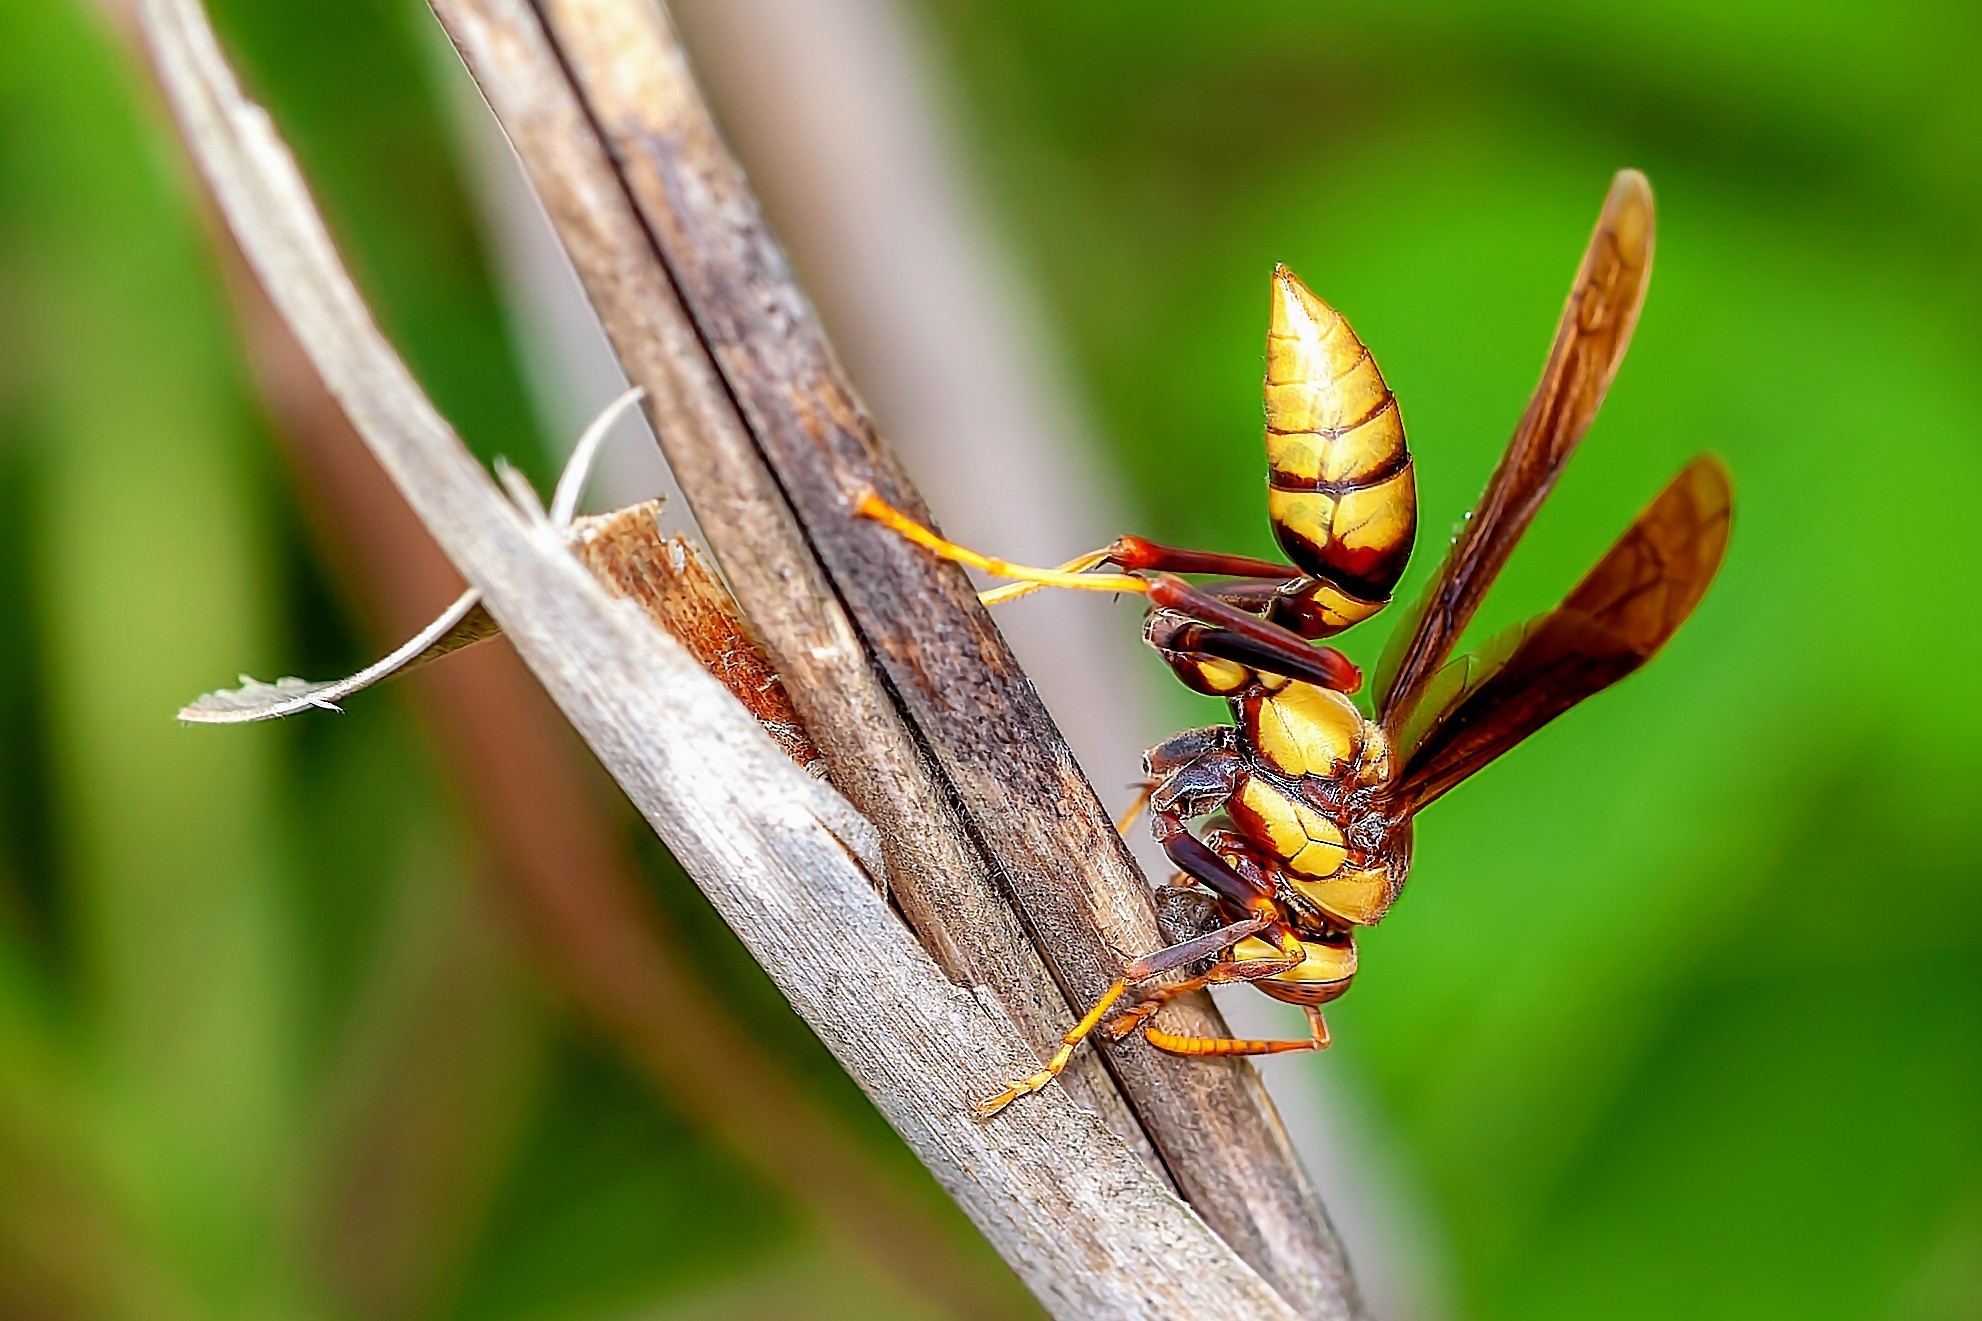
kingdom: Animalia
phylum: Arthropoda
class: Insecta
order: Hymenoptera
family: Eumenidae
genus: Polistes
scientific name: Polistes major
